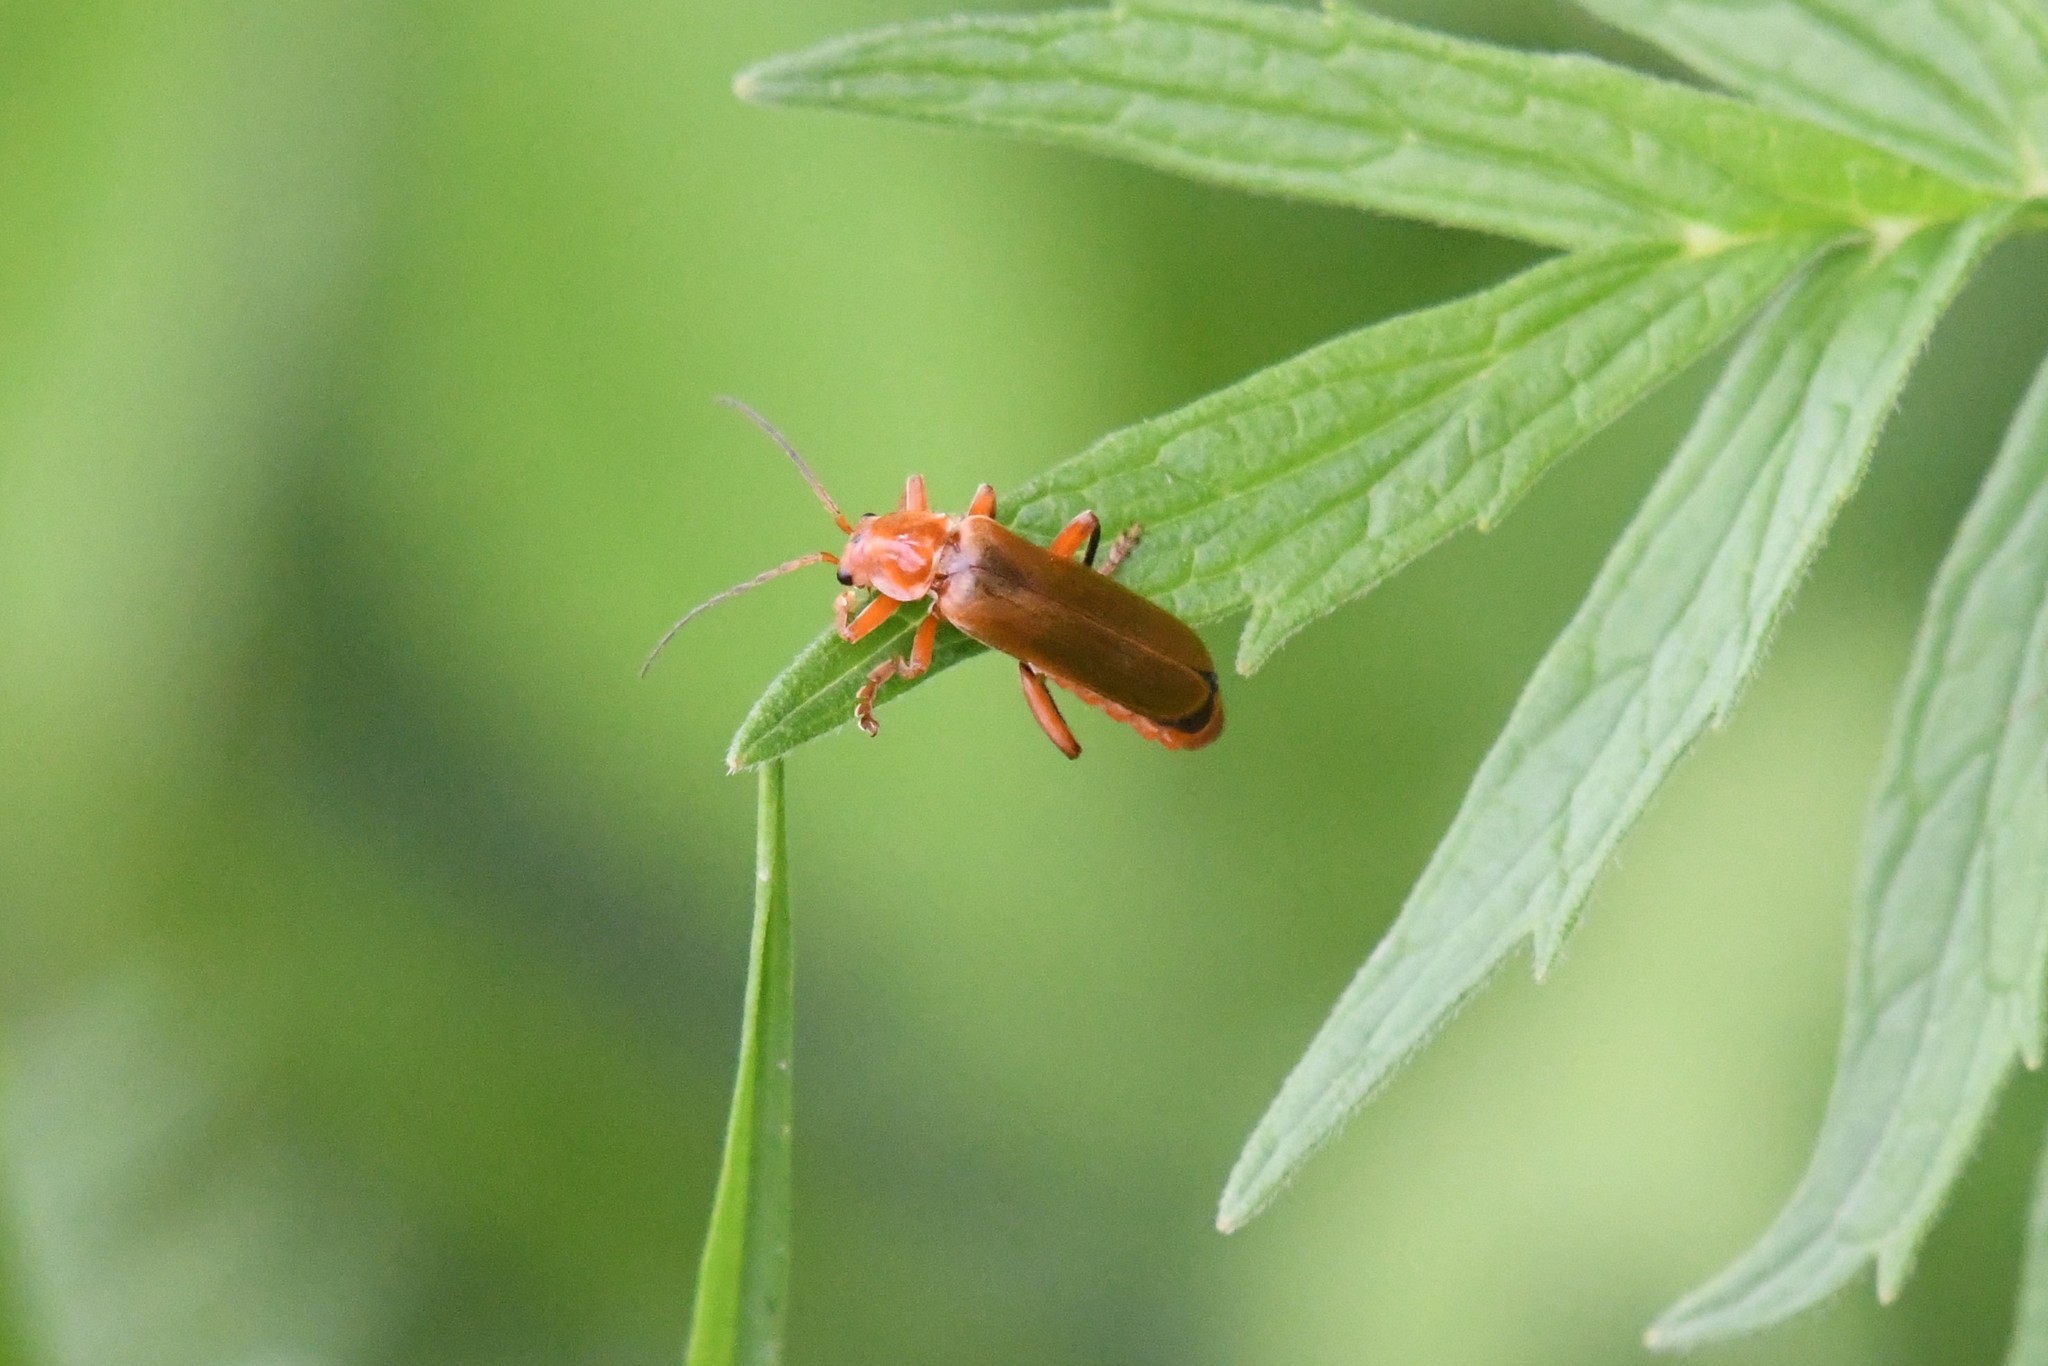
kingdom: Animalia
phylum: Arthropoda
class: Insecta
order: Coleoptera
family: Cantharidae
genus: Cantharis
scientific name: Cantharis livida
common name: Livid soldier beetle
